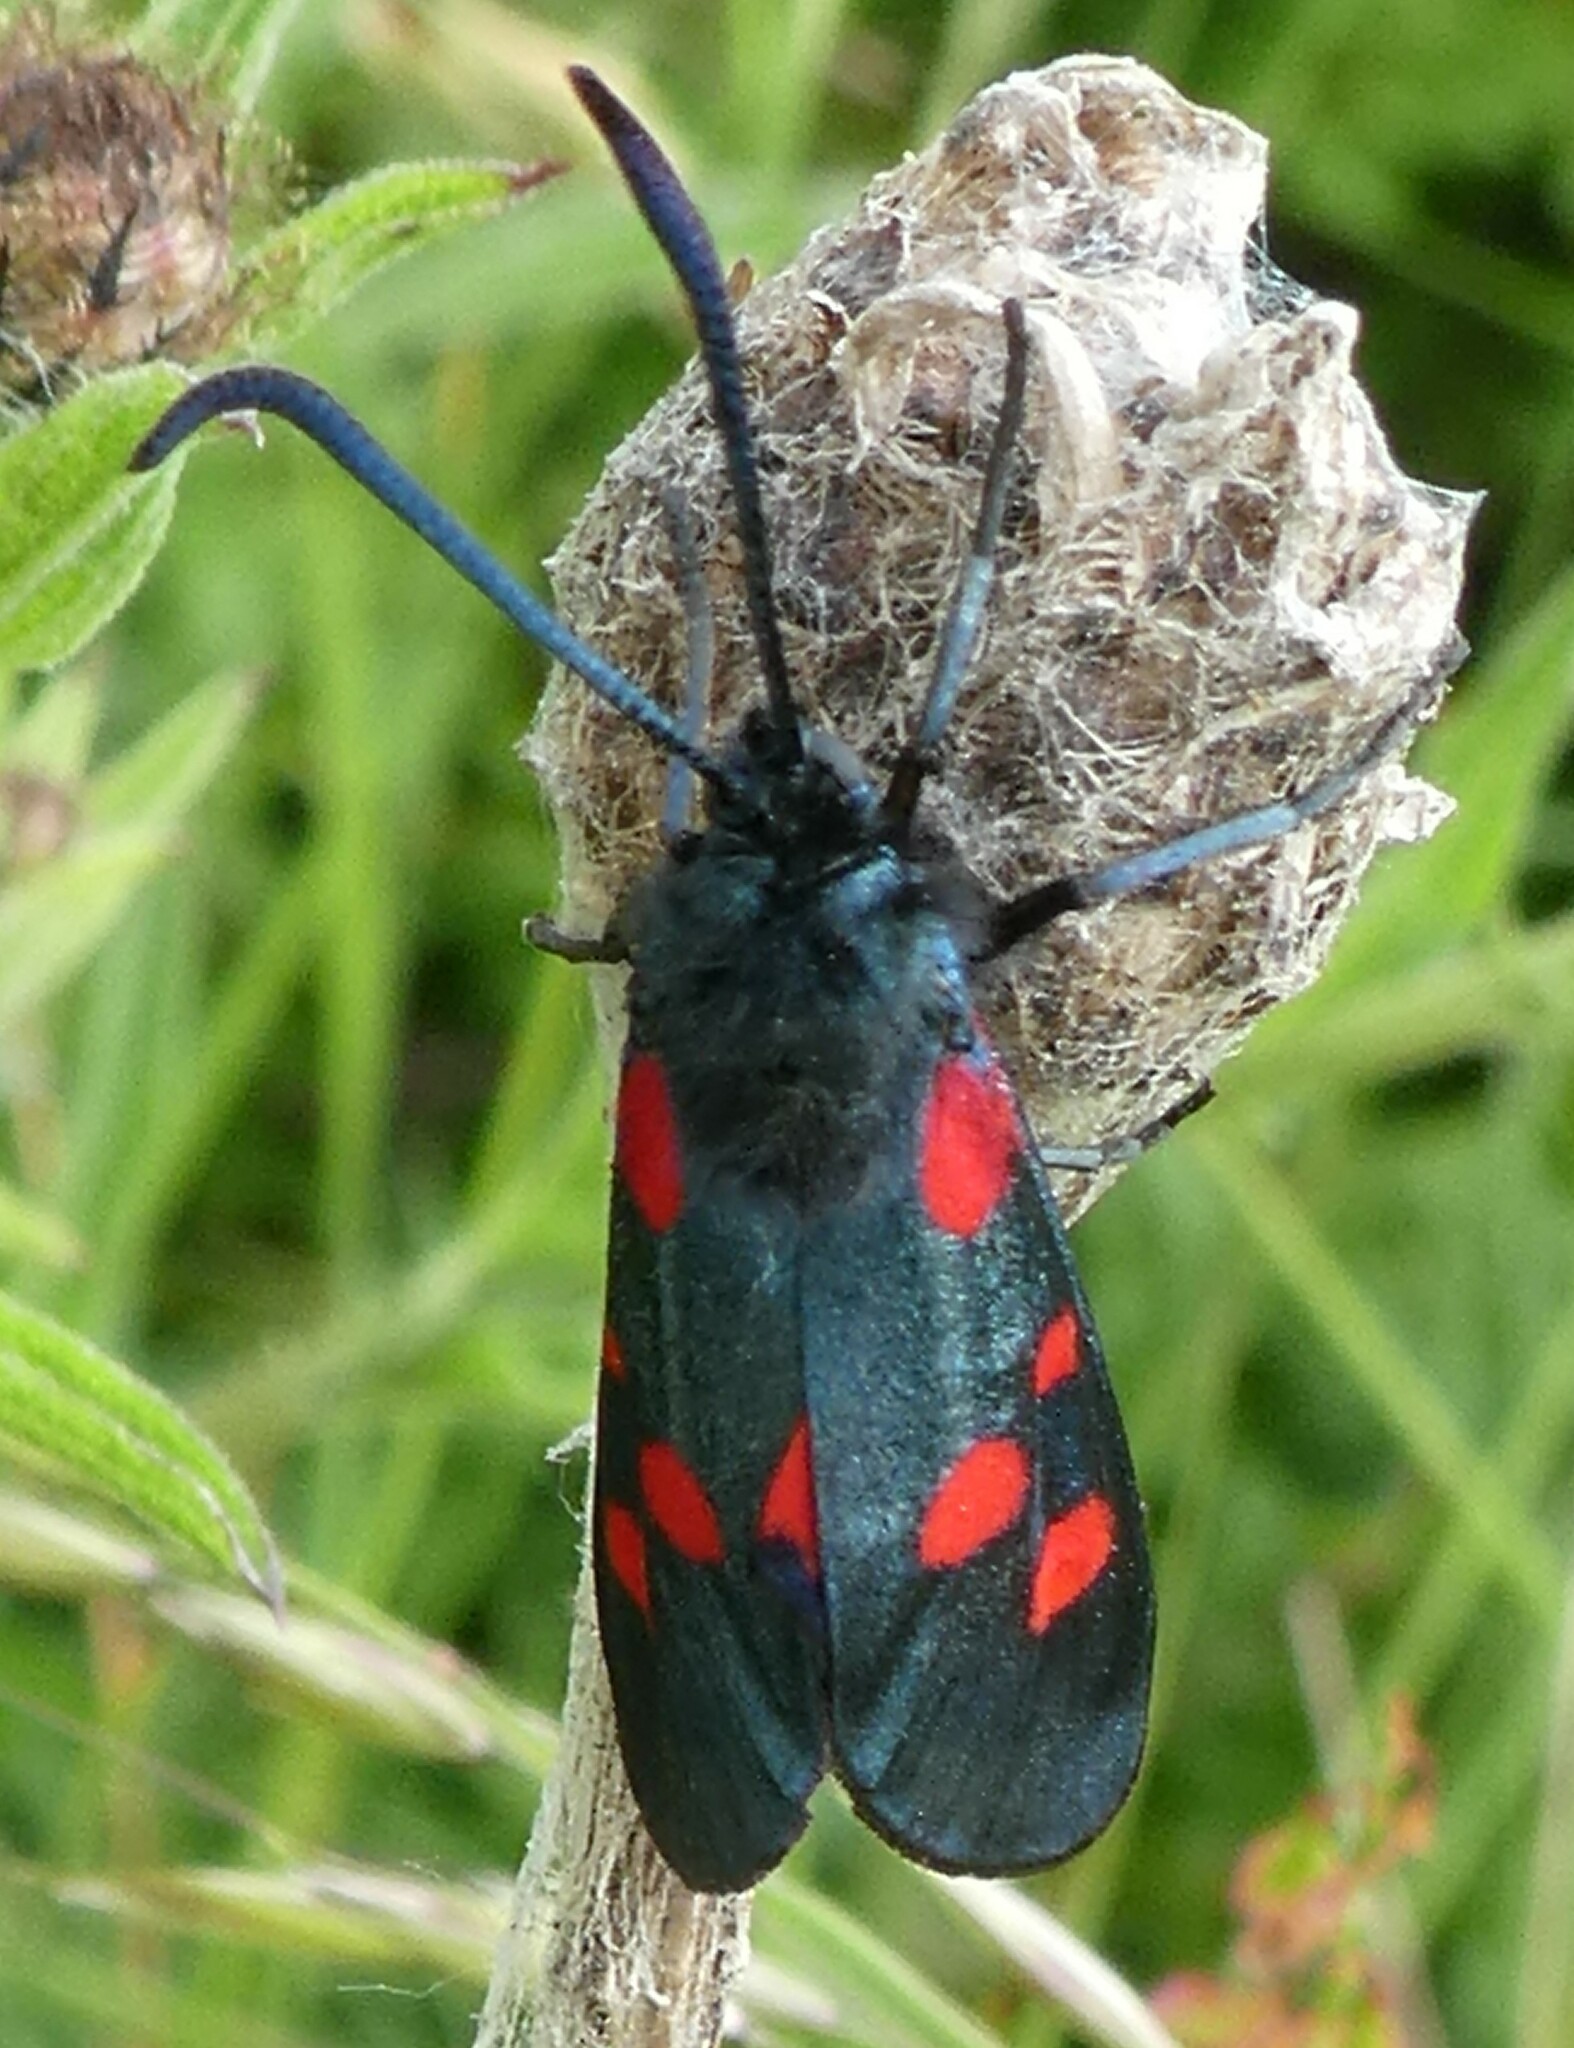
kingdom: Animalia
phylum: Arthropoda
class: Insecta
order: Lepidoptera
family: Zygaenidae
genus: Zygaena
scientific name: Zygaena lonicerae
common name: Narrow-bordered five-spot burnet
